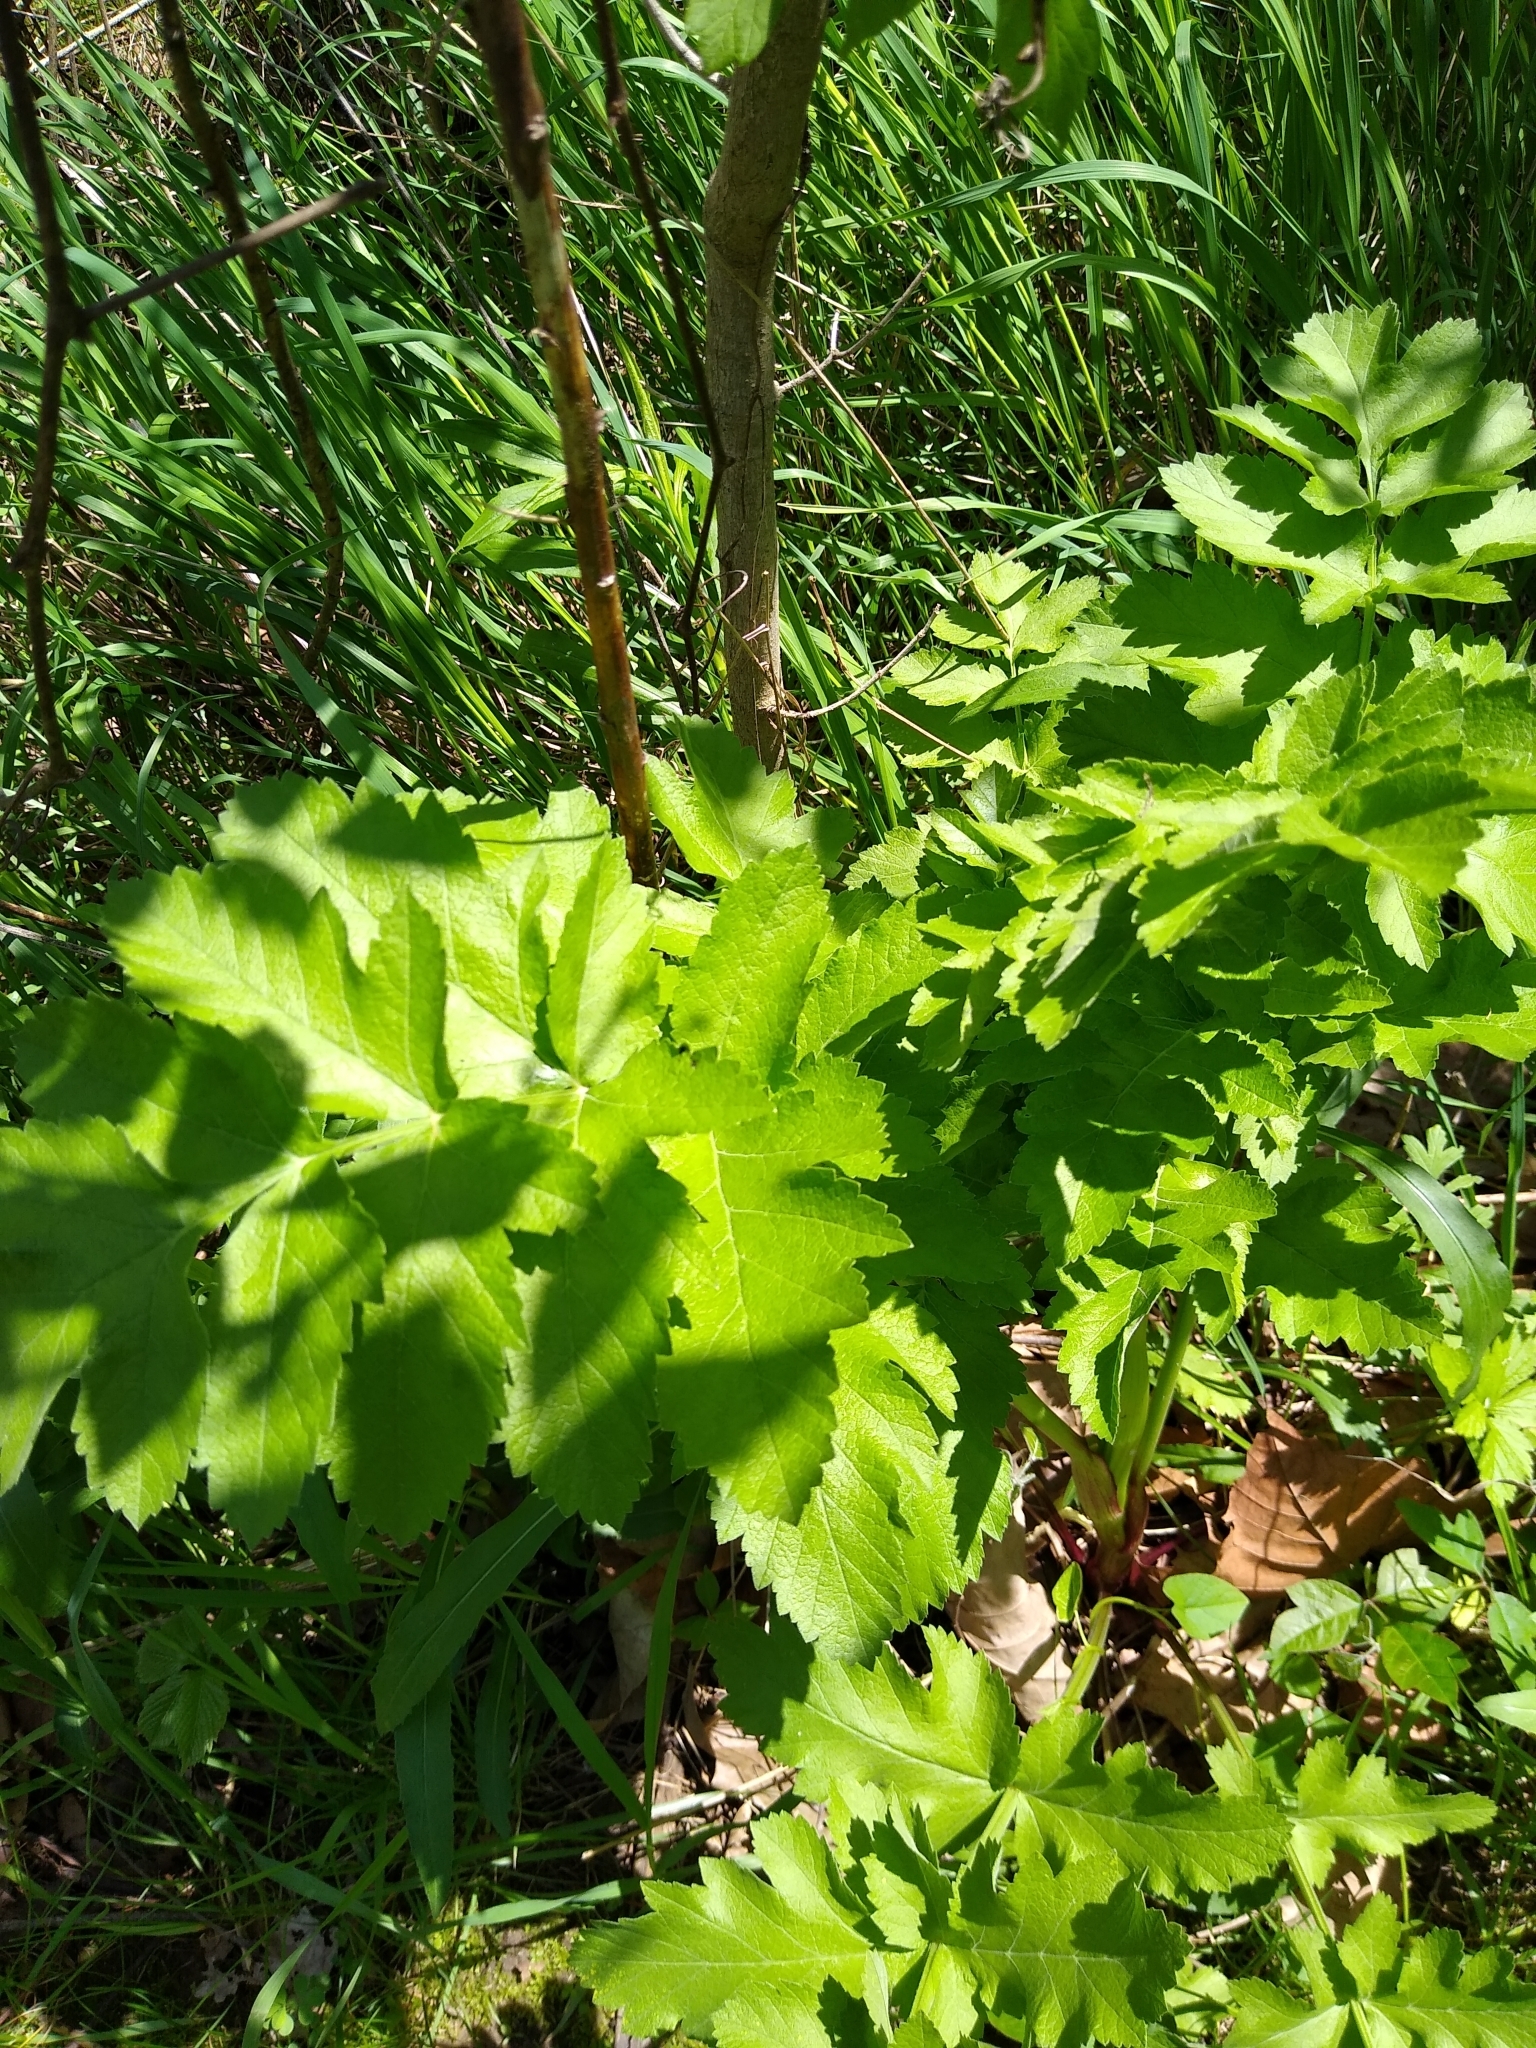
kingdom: Plantae
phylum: Tracheophyta
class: Magnoliopsida
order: Apiales
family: Apiaceae
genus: Pastinaca
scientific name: Pastinaca sativa
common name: Wild parsnip
